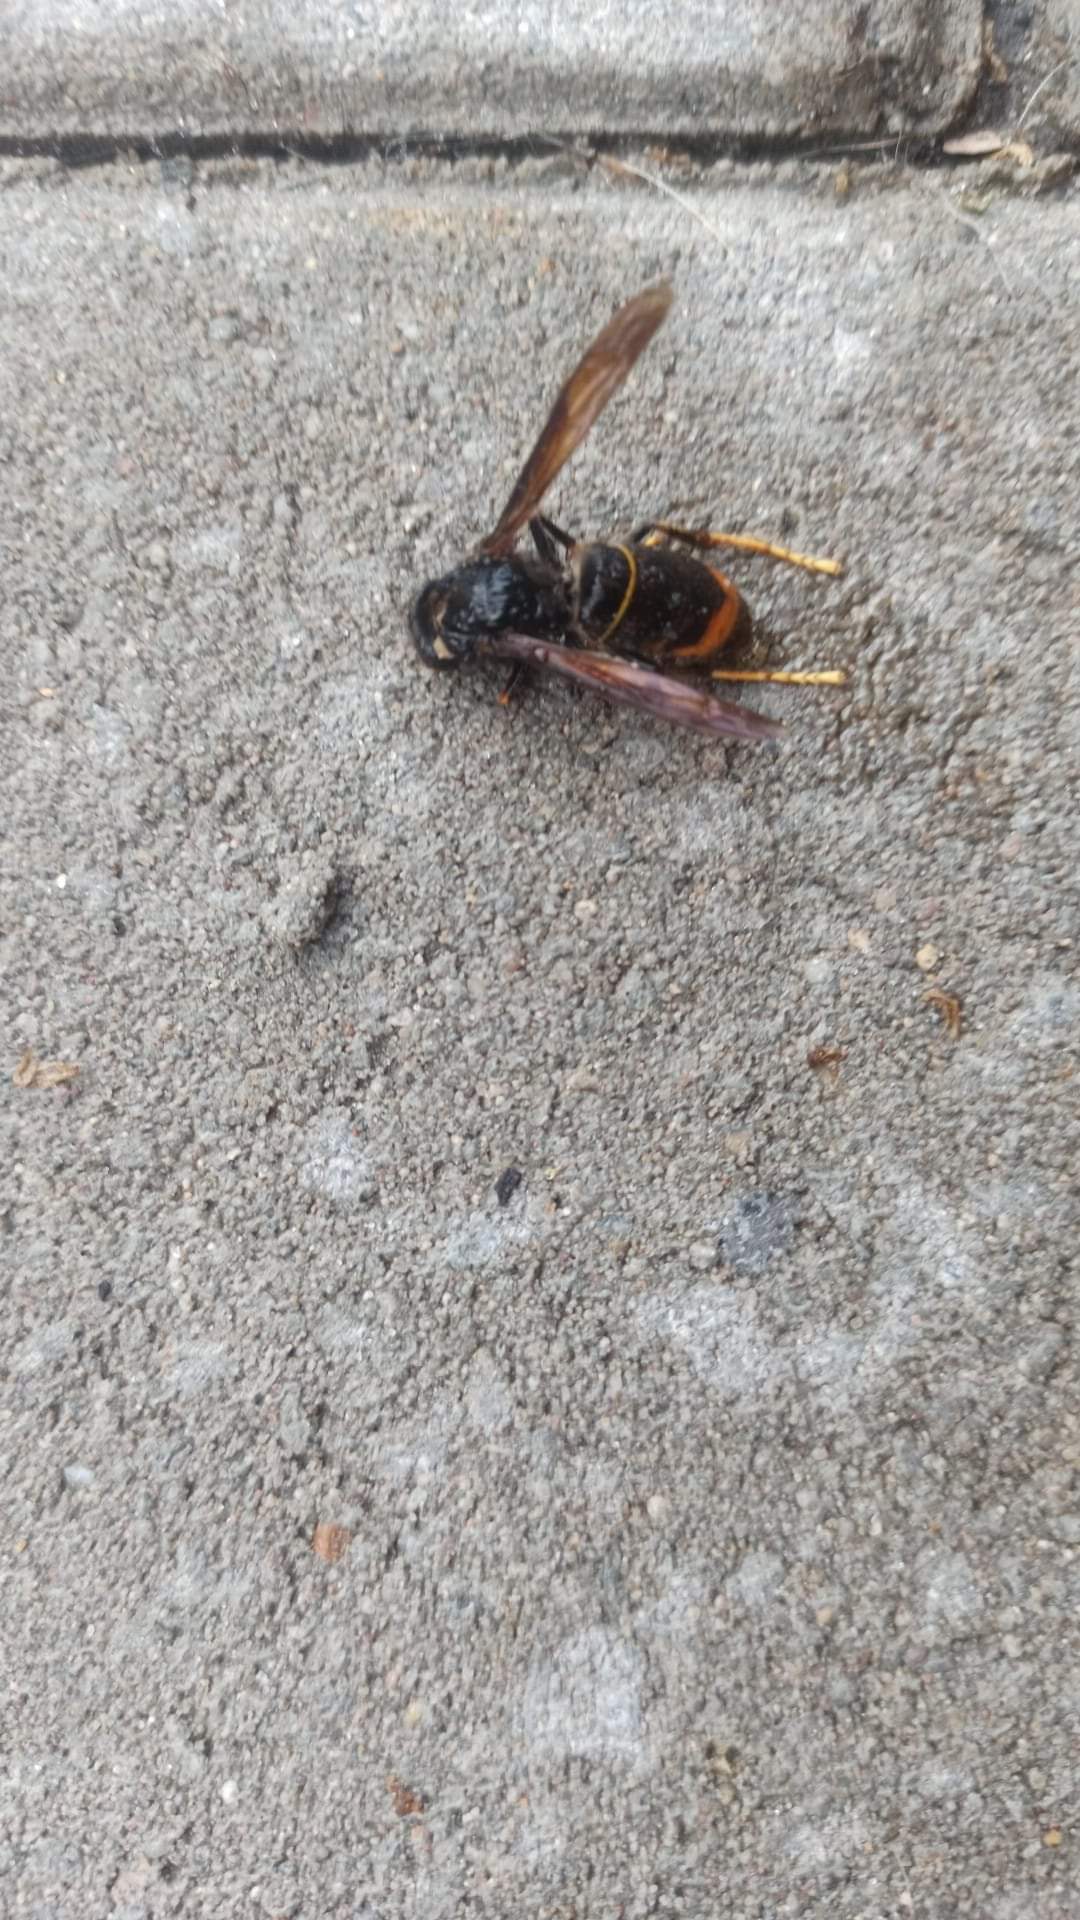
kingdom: Animalia
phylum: Arthropoda
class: Insecta
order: Hymenoptera
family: Vespidae
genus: Vespa
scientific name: Vespa velutina
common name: Asian hornet
